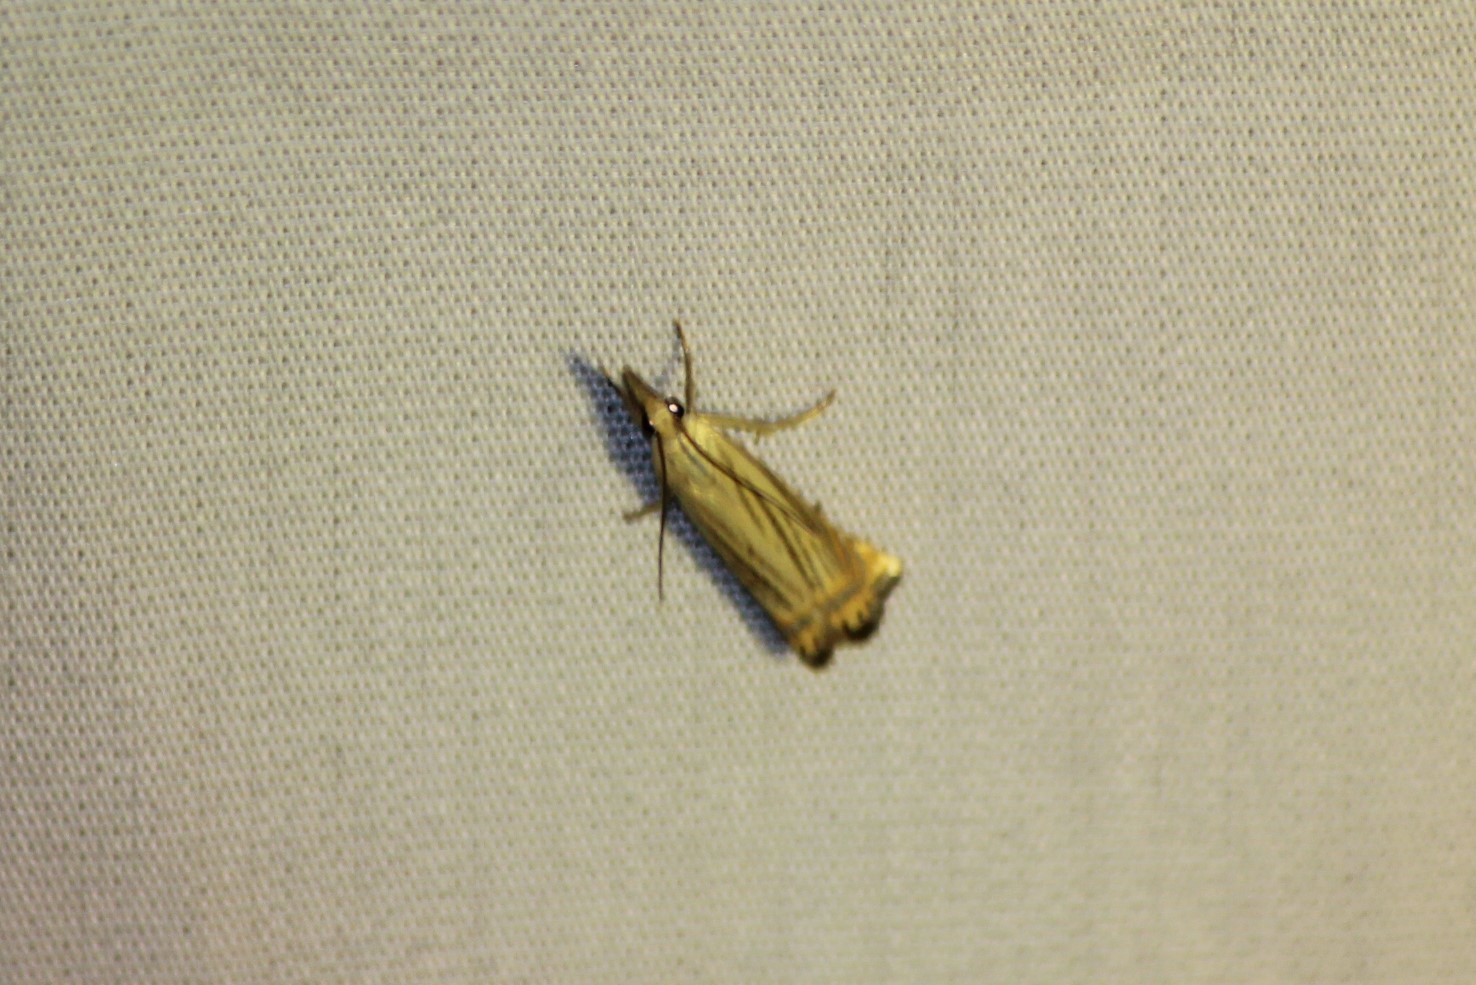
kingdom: Animalia
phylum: Arthropoda
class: Insecta
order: Lepidoptera
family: Crambidae
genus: Chrysoteuchia
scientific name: Chrysoteuchia topiarius
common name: Topiary grass-veneer
